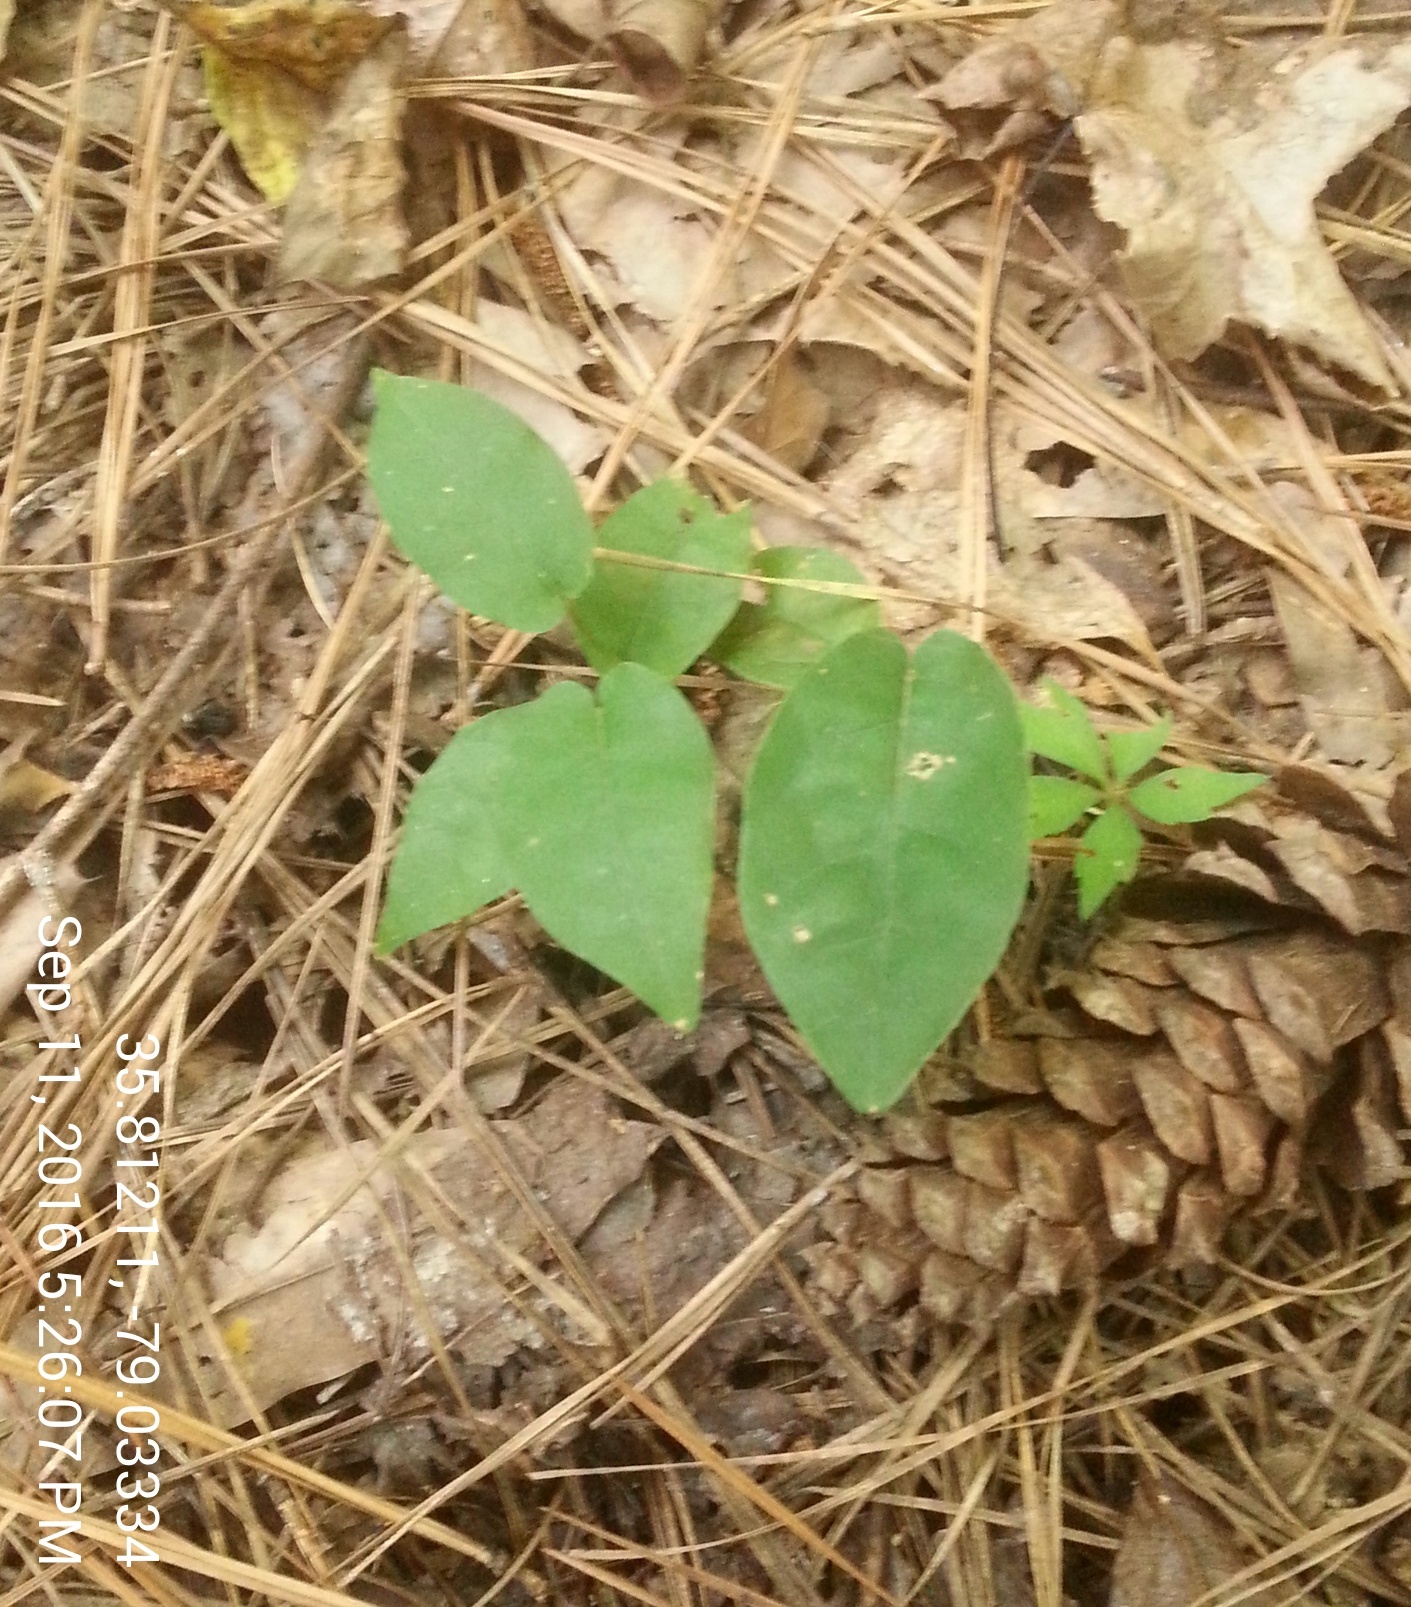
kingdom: Plantae
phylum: Tracheophyta
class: Magnoliopsida
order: Lamiales
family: Bignoniaceae
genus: Bignonia
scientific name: Bignonia capreolata
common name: Crossvine
